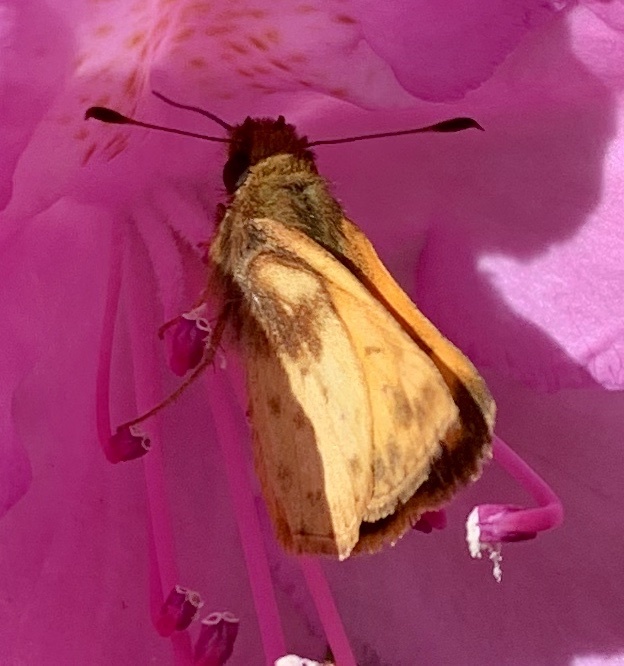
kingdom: Animalia
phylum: Arthropoda
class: Insecta
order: Lepidoptera
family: Hesperiidae
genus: Lon
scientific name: Lon zabulon
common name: Zabulon skipper
